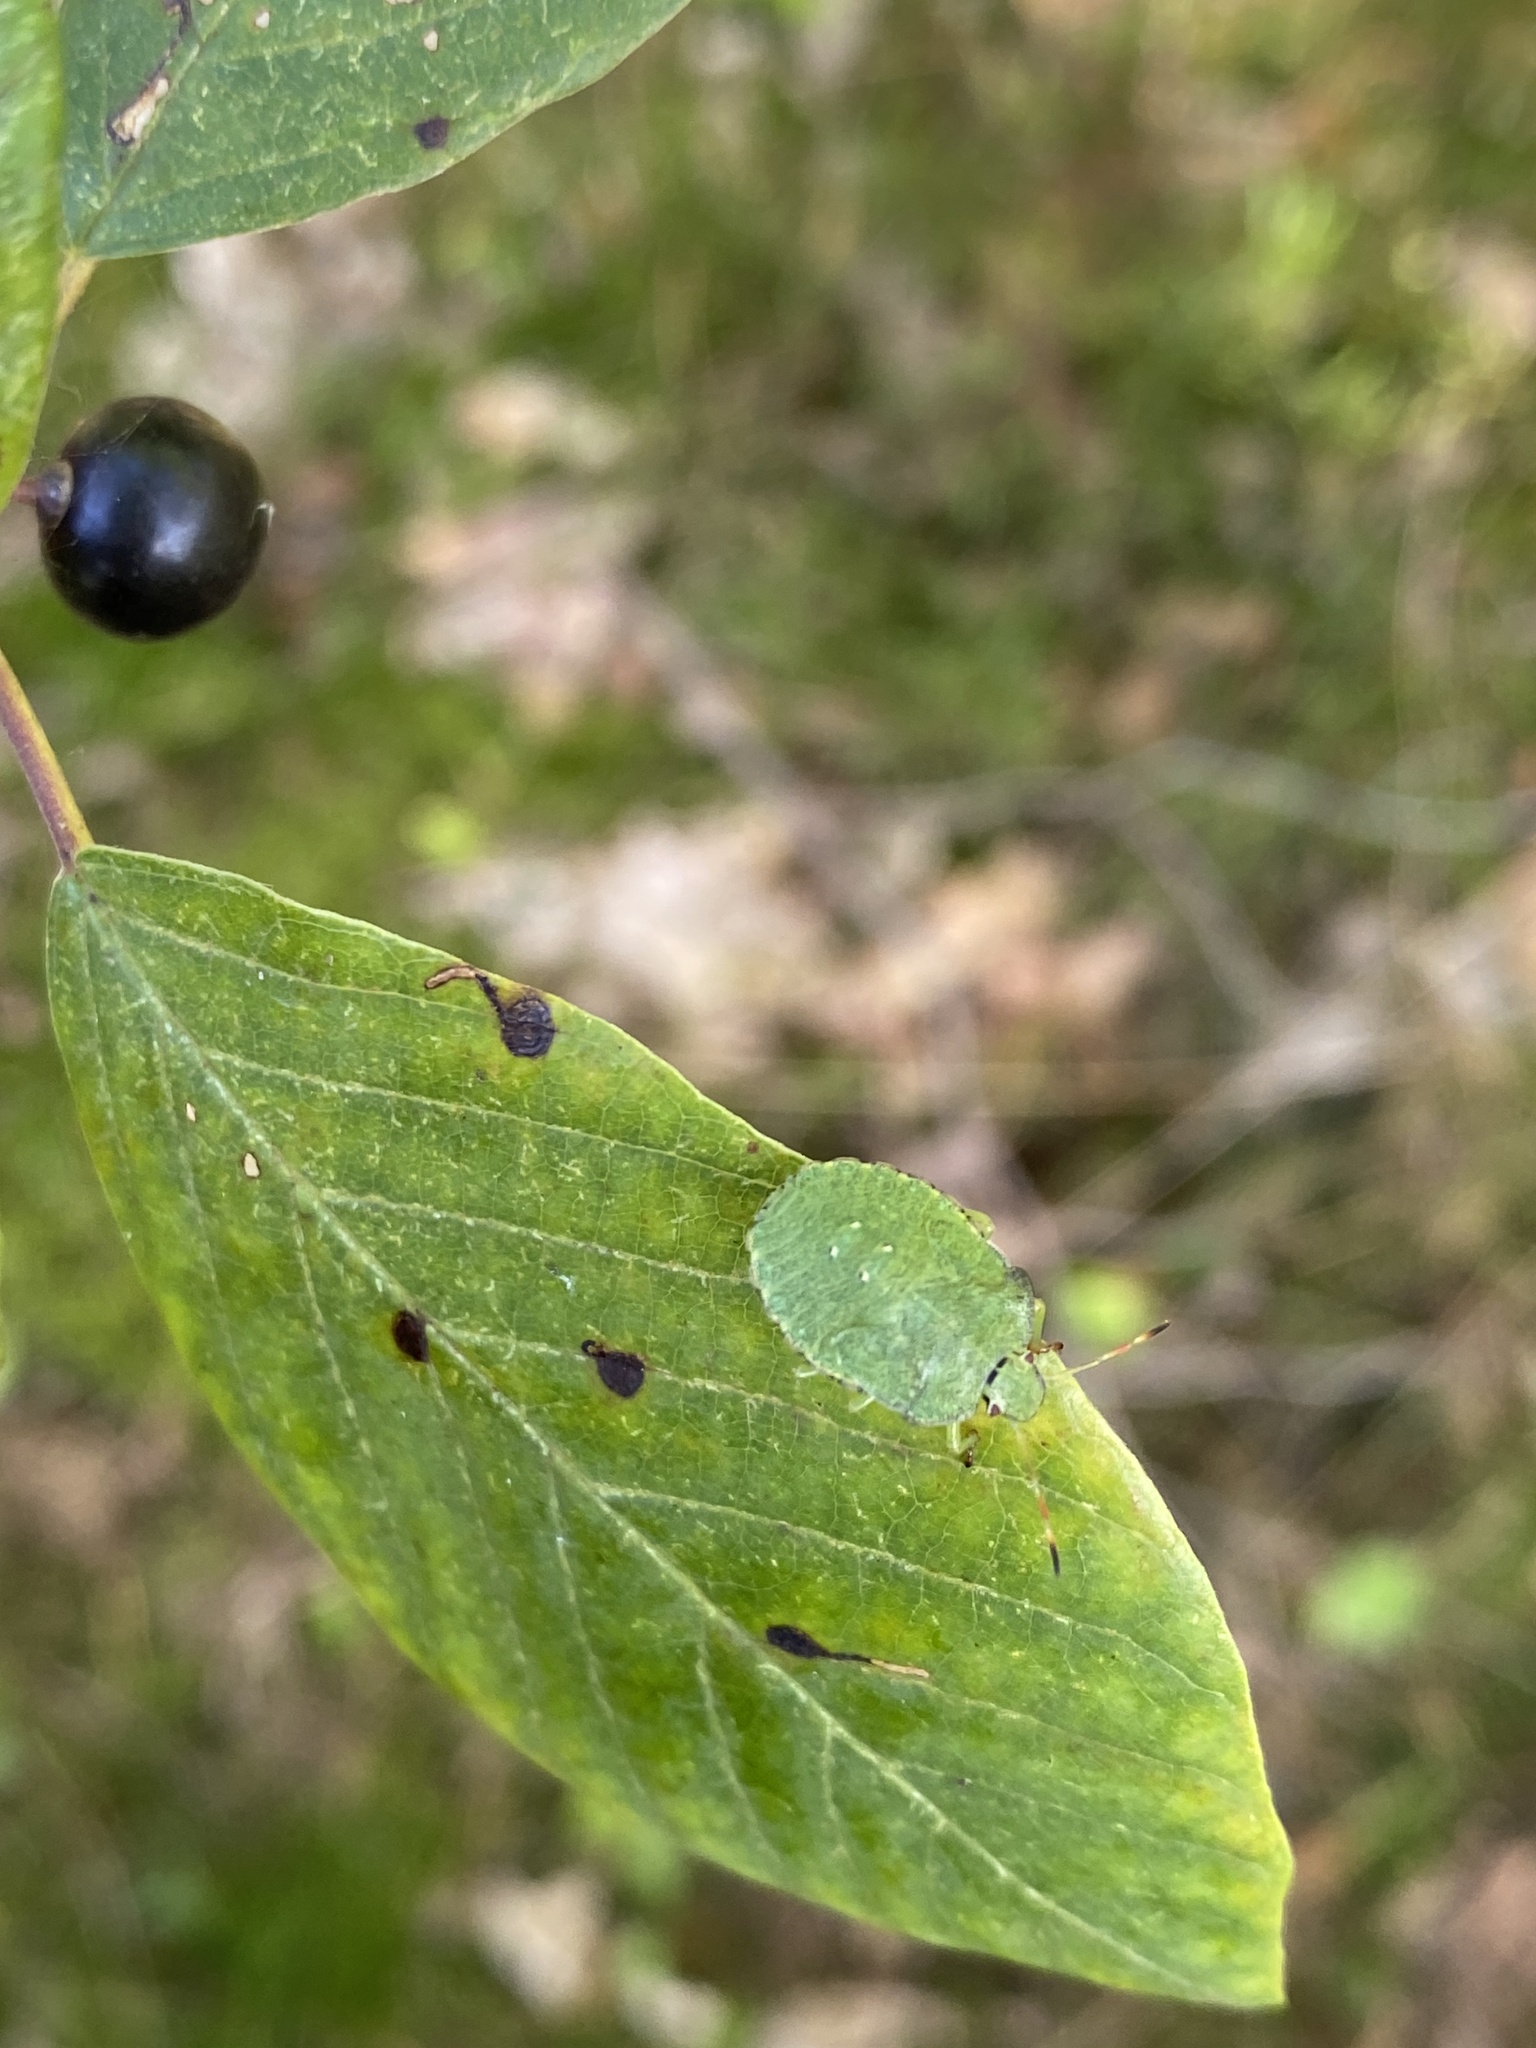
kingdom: Animalia
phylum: Arthropoda
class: Insecta
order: Hemiptera
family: Pentatomidae
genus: Palomena
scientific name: Palomena prasina
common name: Green shieldbug
